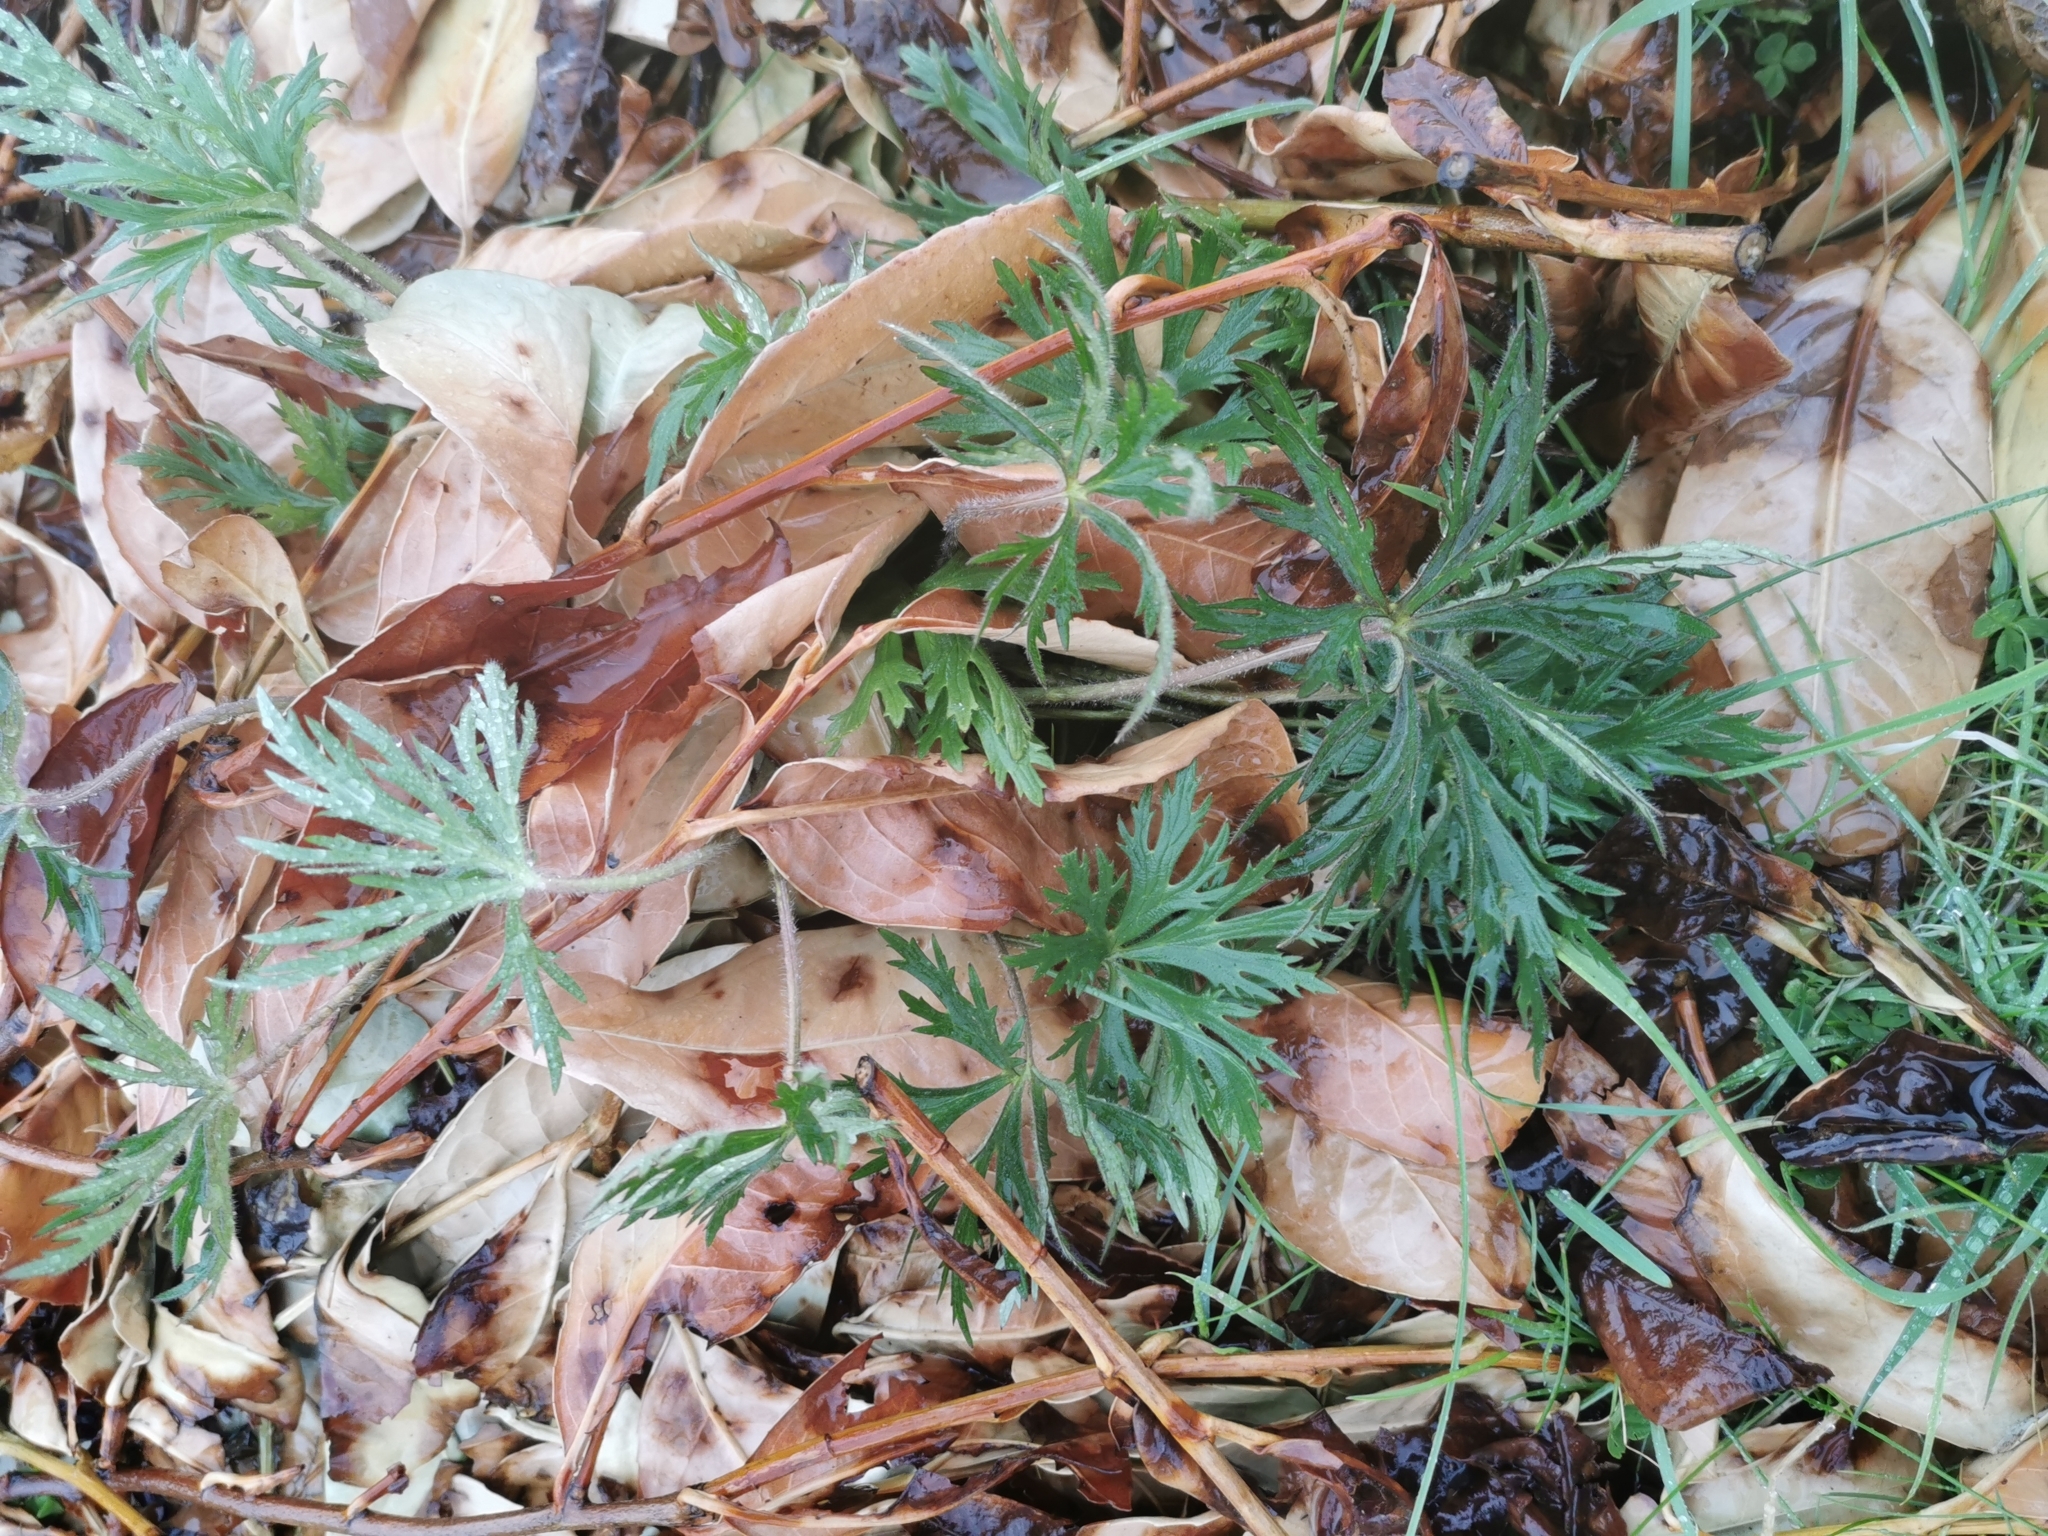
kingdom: Plantae
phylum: Tracheophyta
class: Magnoliopsida
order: Ranunculales
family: Ranunculaceae
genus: Ranunculus
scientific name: Ranunculus acris
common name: Meadow buttercup
